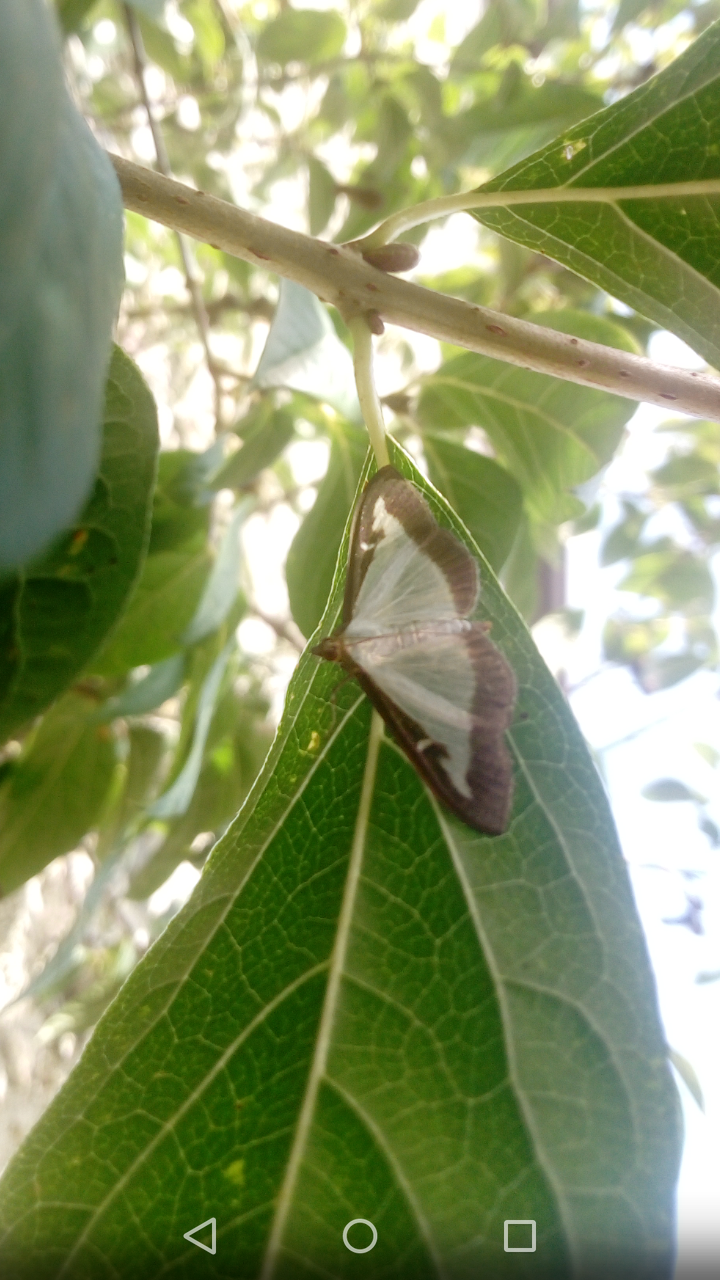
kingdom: Animalia
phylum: Arthropoda
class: Insecta
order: Lepidoptera
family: Crambidae
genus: Cydalima
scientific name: Cydalima perspectalis
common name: Box tree moth
